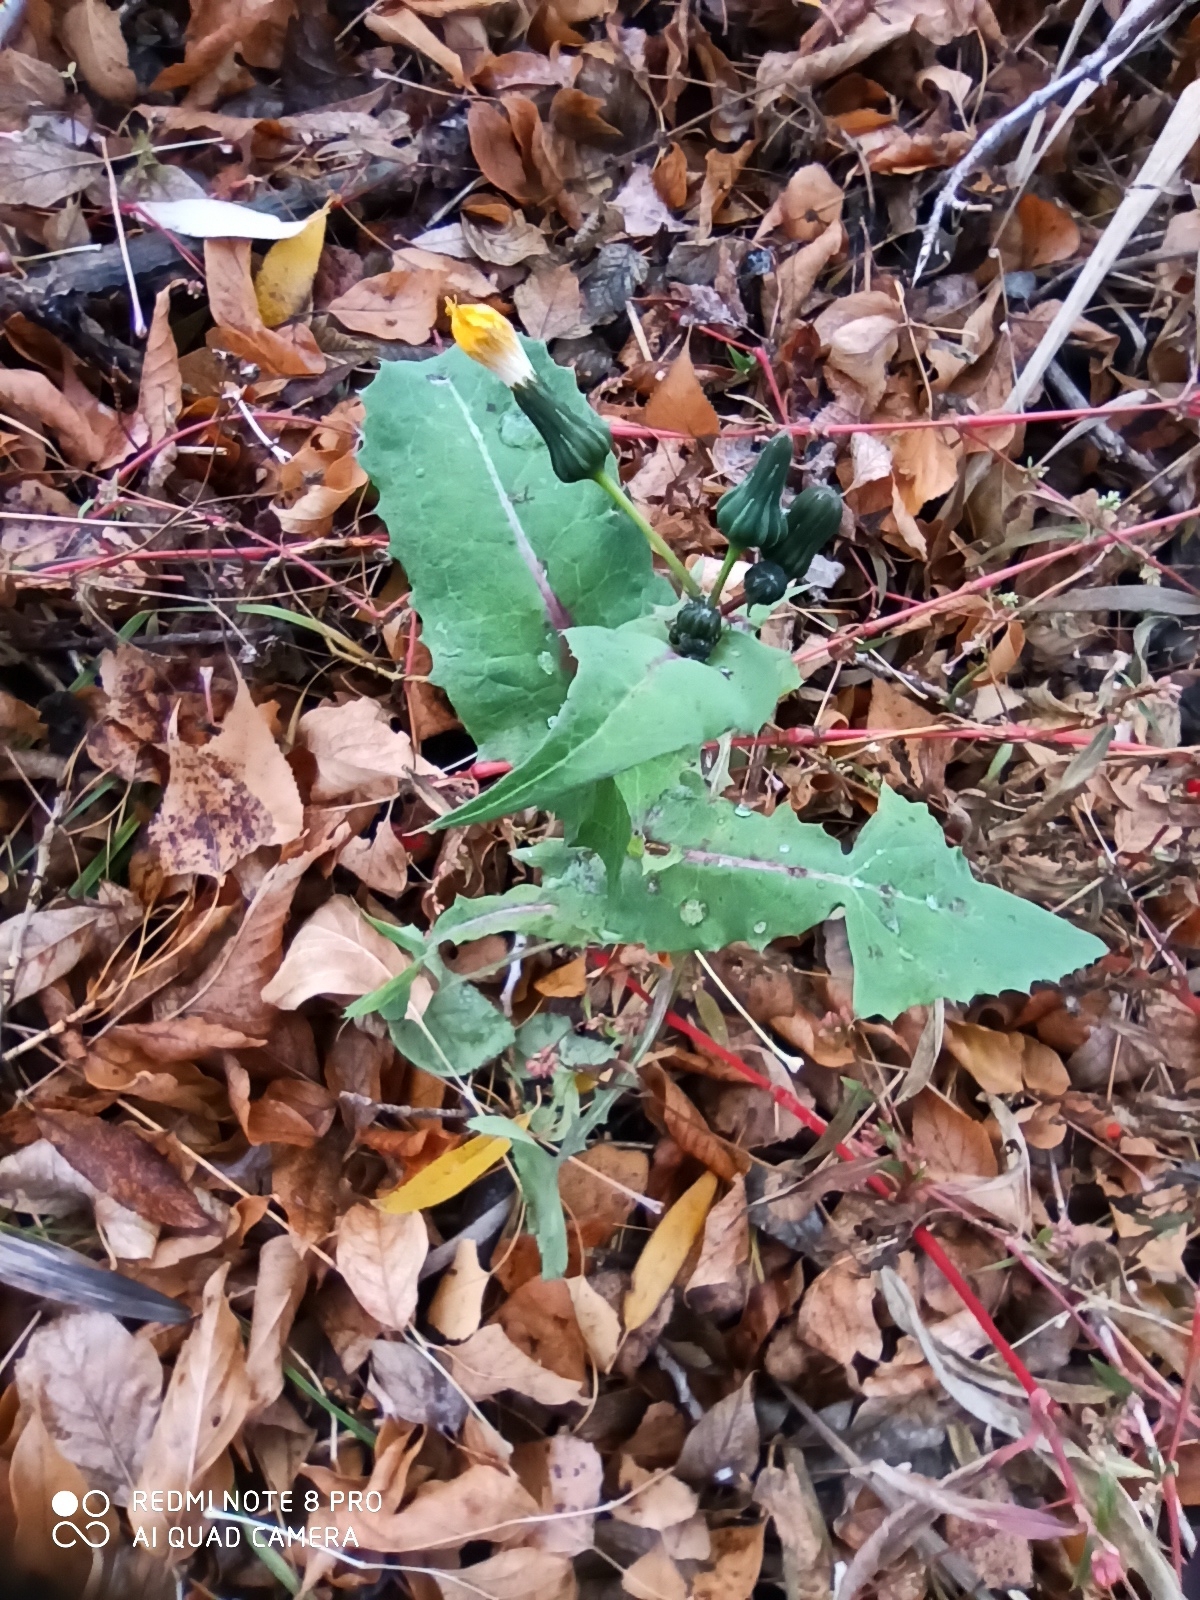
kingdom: Plantae
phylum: Tracheophyta
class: Magnoliopsida
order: Asterales
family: Asteraceae
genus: Sonchus
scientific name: Sonchus arvensis
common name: Perennial sow-thistle
